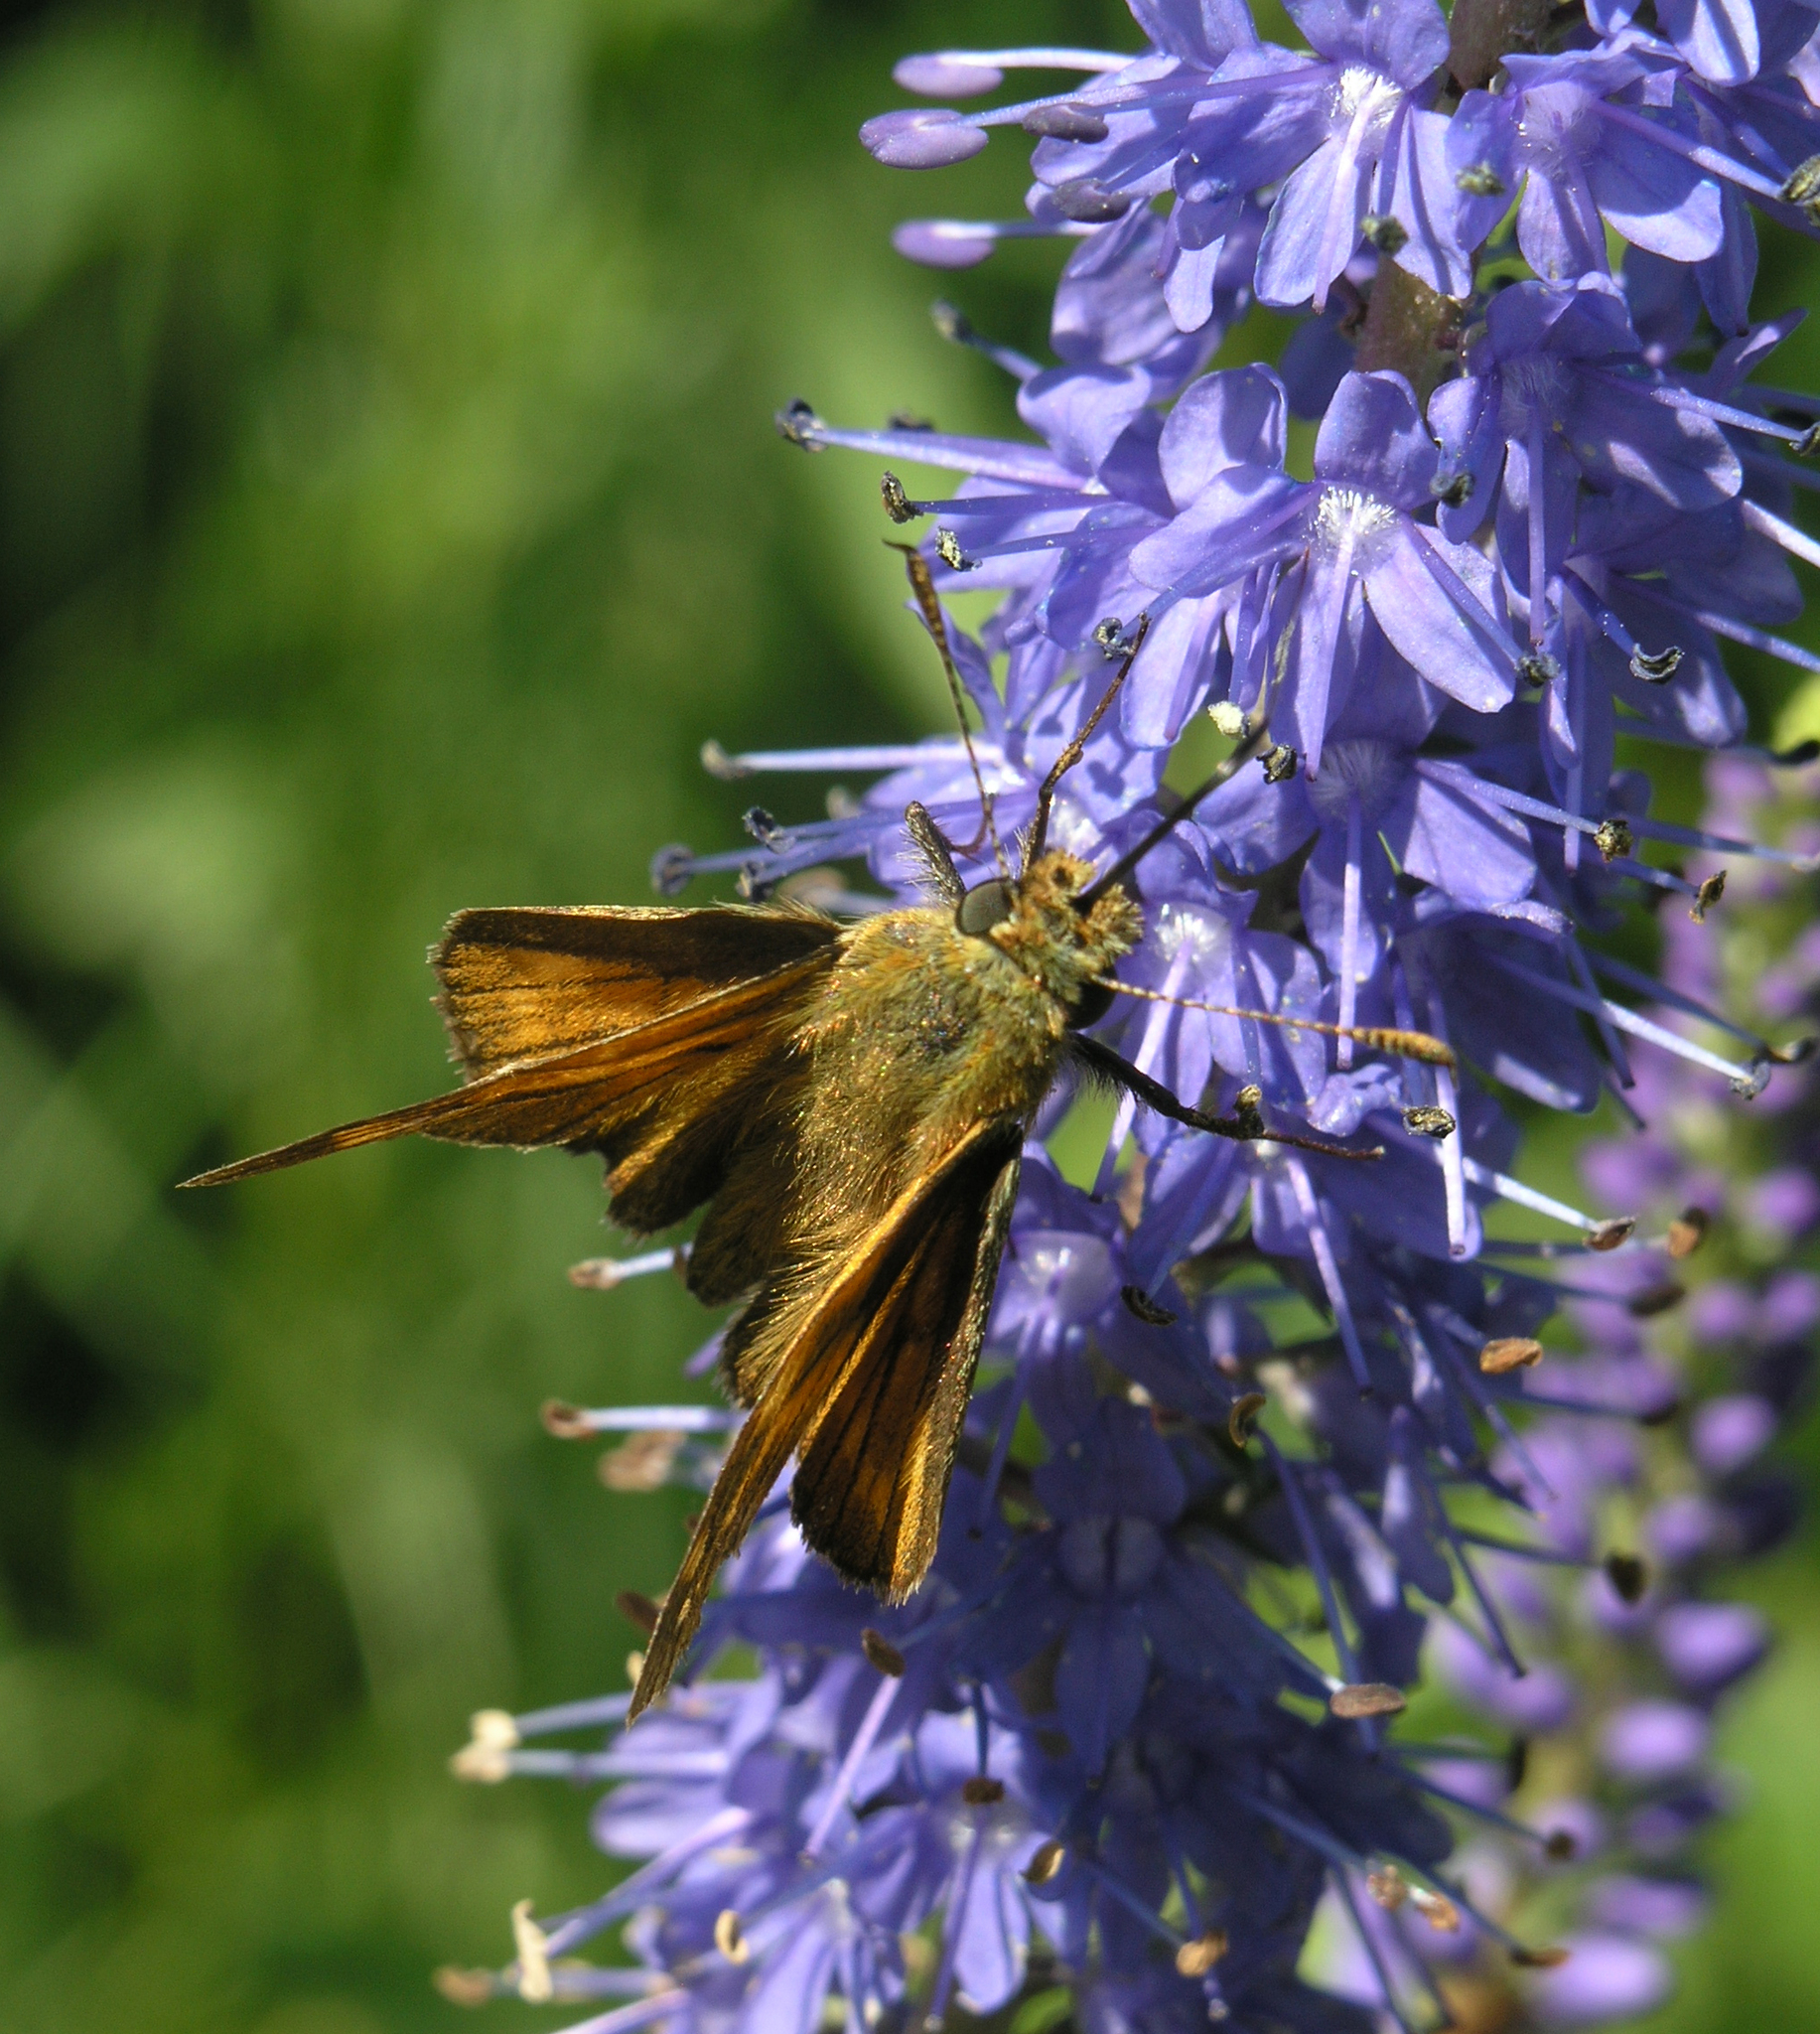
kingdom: Animalia
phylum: Arthropoda
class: Insecta
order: Lepidoptera
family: Hesperiidae
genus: Ochlodes
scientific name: Ochlodes venata
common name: Large skipper
